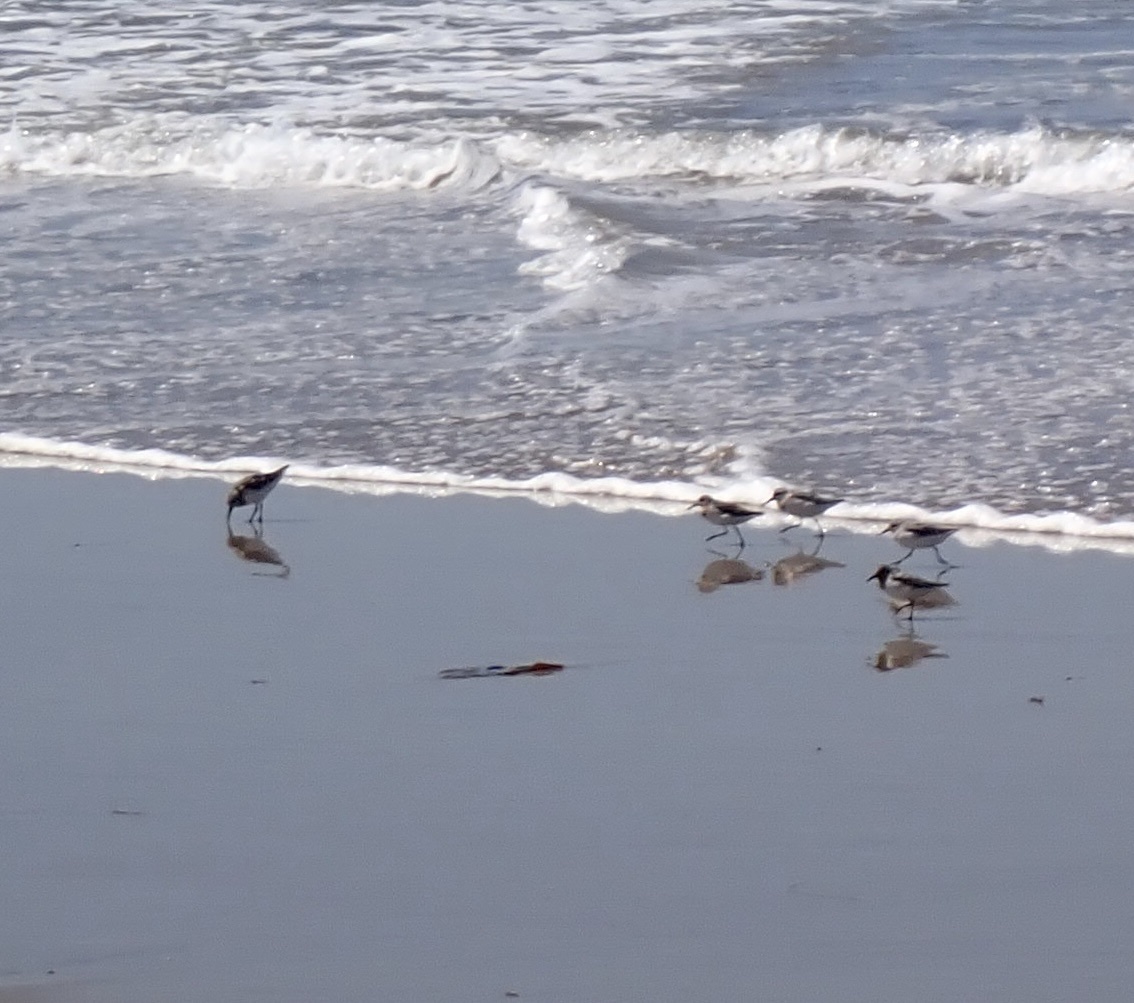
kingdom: Animalia
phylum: Chordata
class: Aves
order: Charadriiformes
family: Scolopacidae
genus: Calidris
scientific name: Calidris alba
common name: Sanderling
